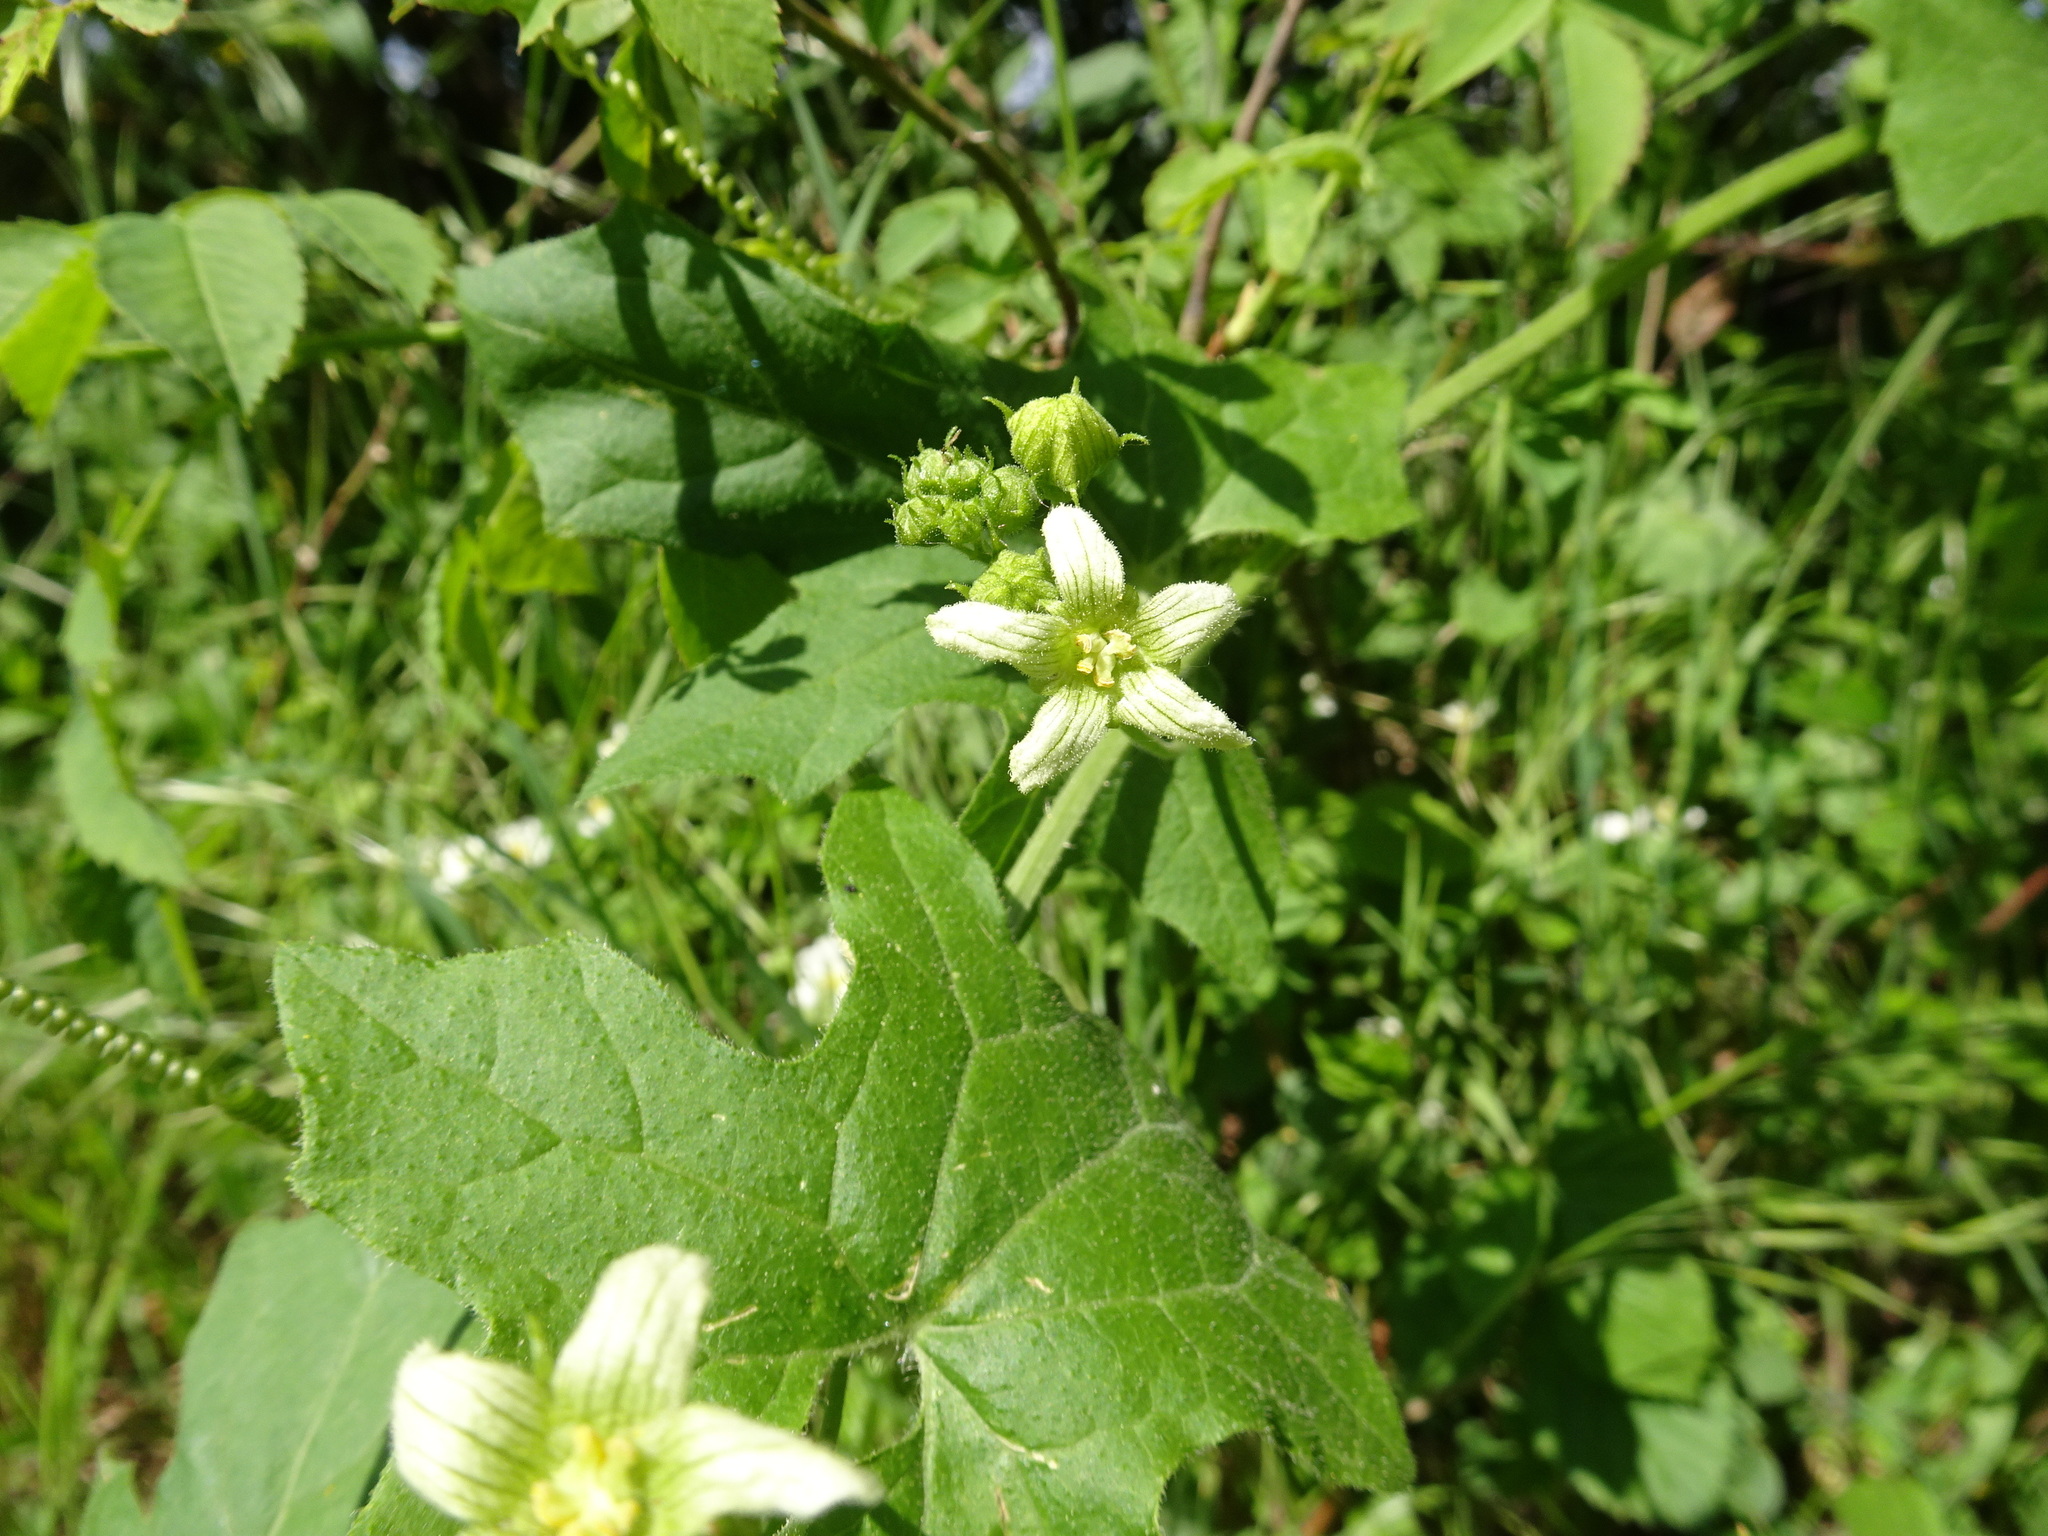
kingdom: Plantae
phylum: Tracheophyta
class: Magnoliopsida
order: Cucurbitales
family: Cucurbitaceae
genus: Bryonia
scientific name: Bryonia cretica
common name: Cretan bryony
